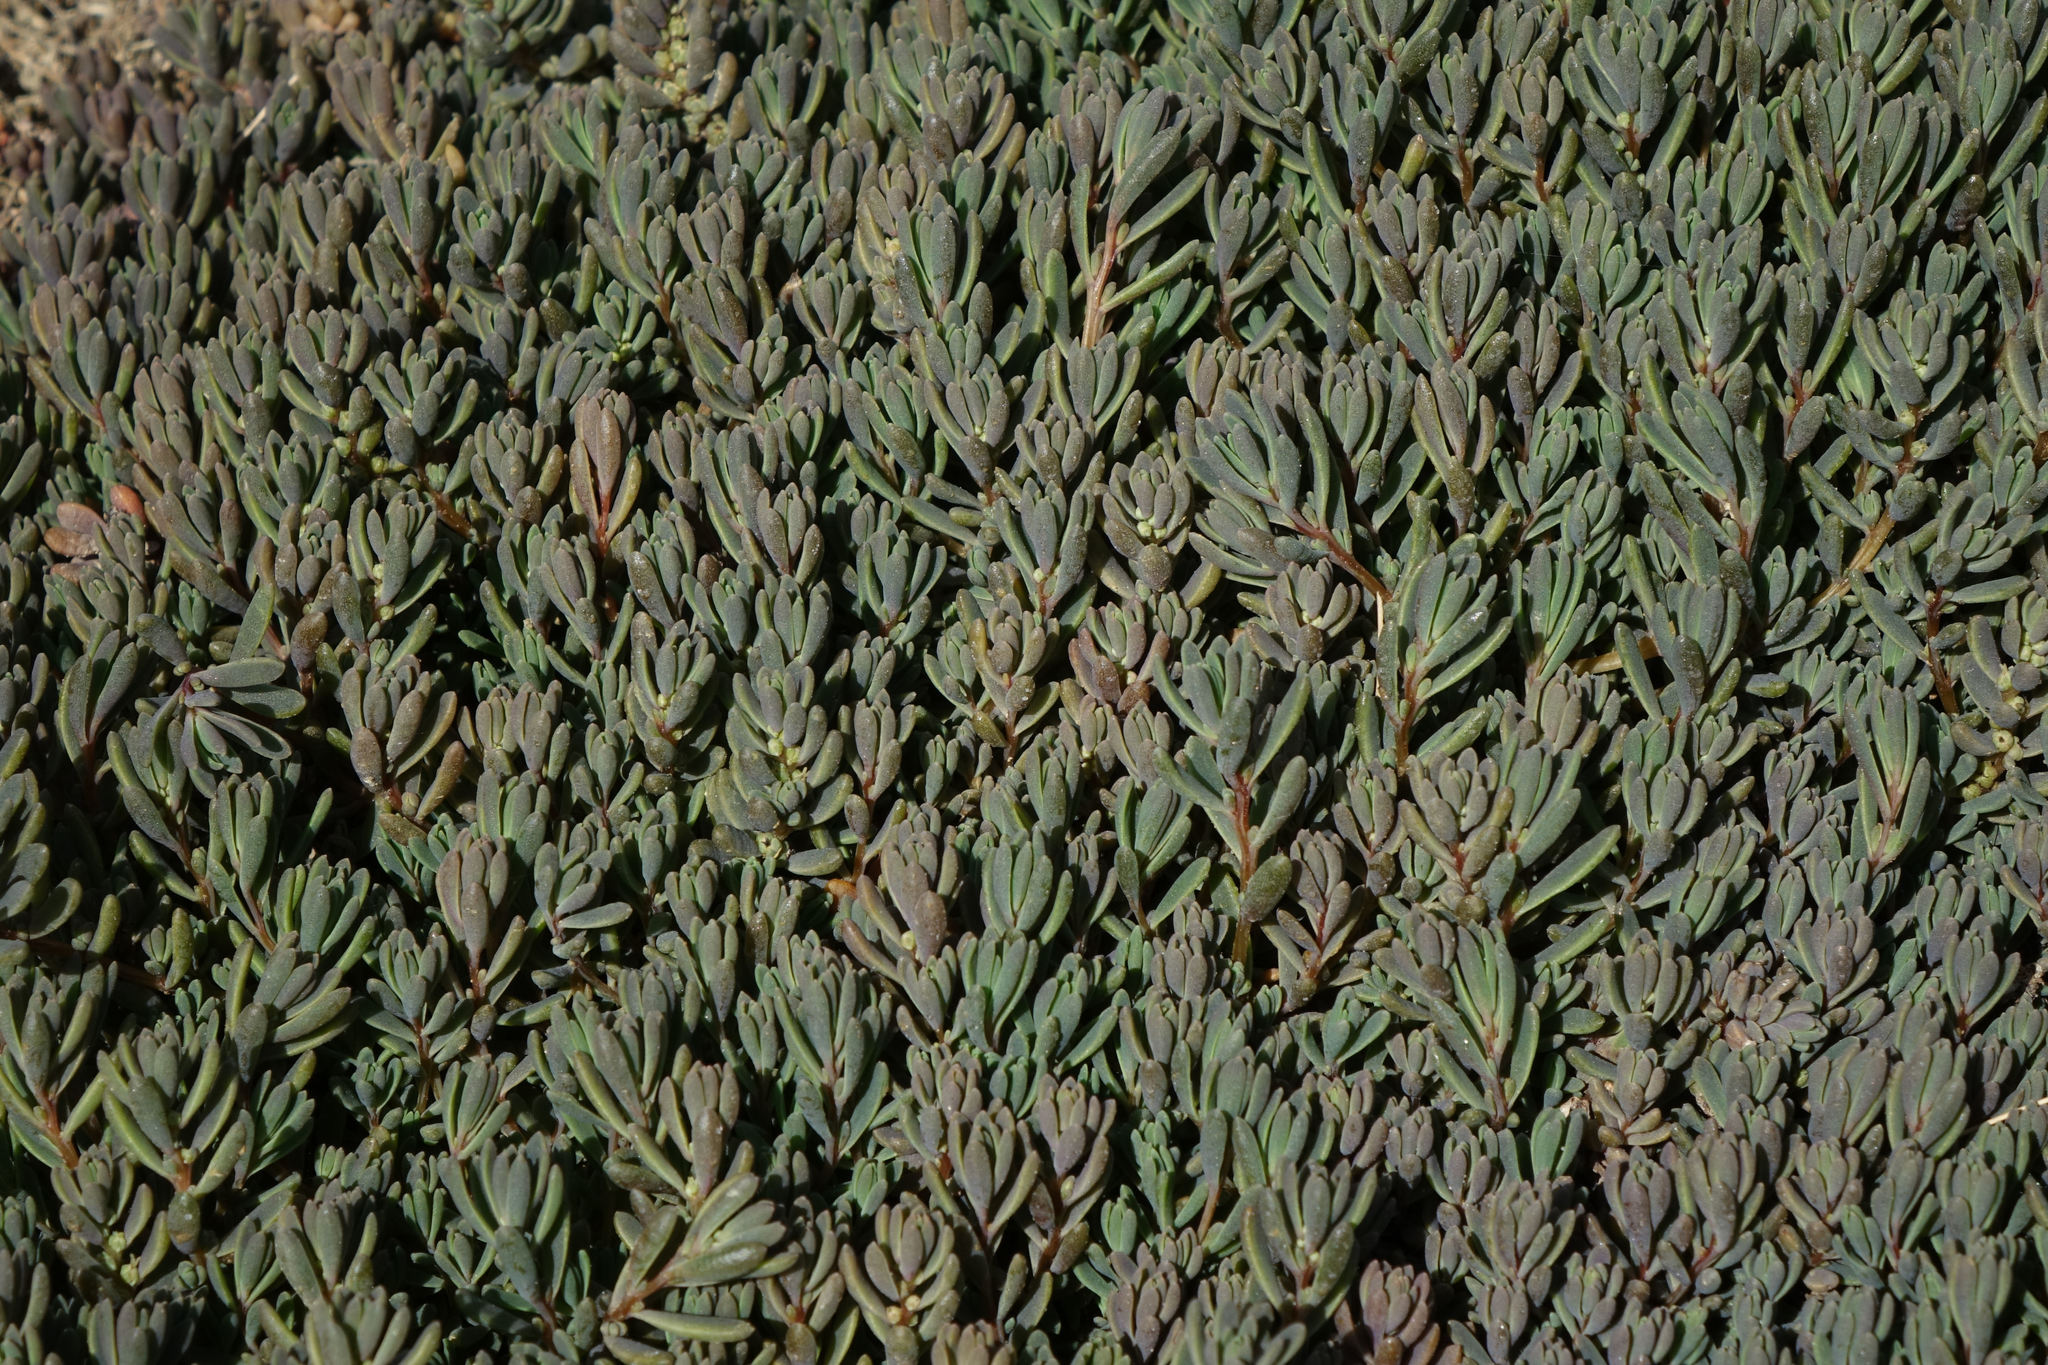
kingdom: Plantae
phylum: Tracheophyta
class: Magnoliopsida
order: Caryophyllales
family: Amaranthaceae
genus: Suaeda
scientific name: Suaeda novae-zelandiae
